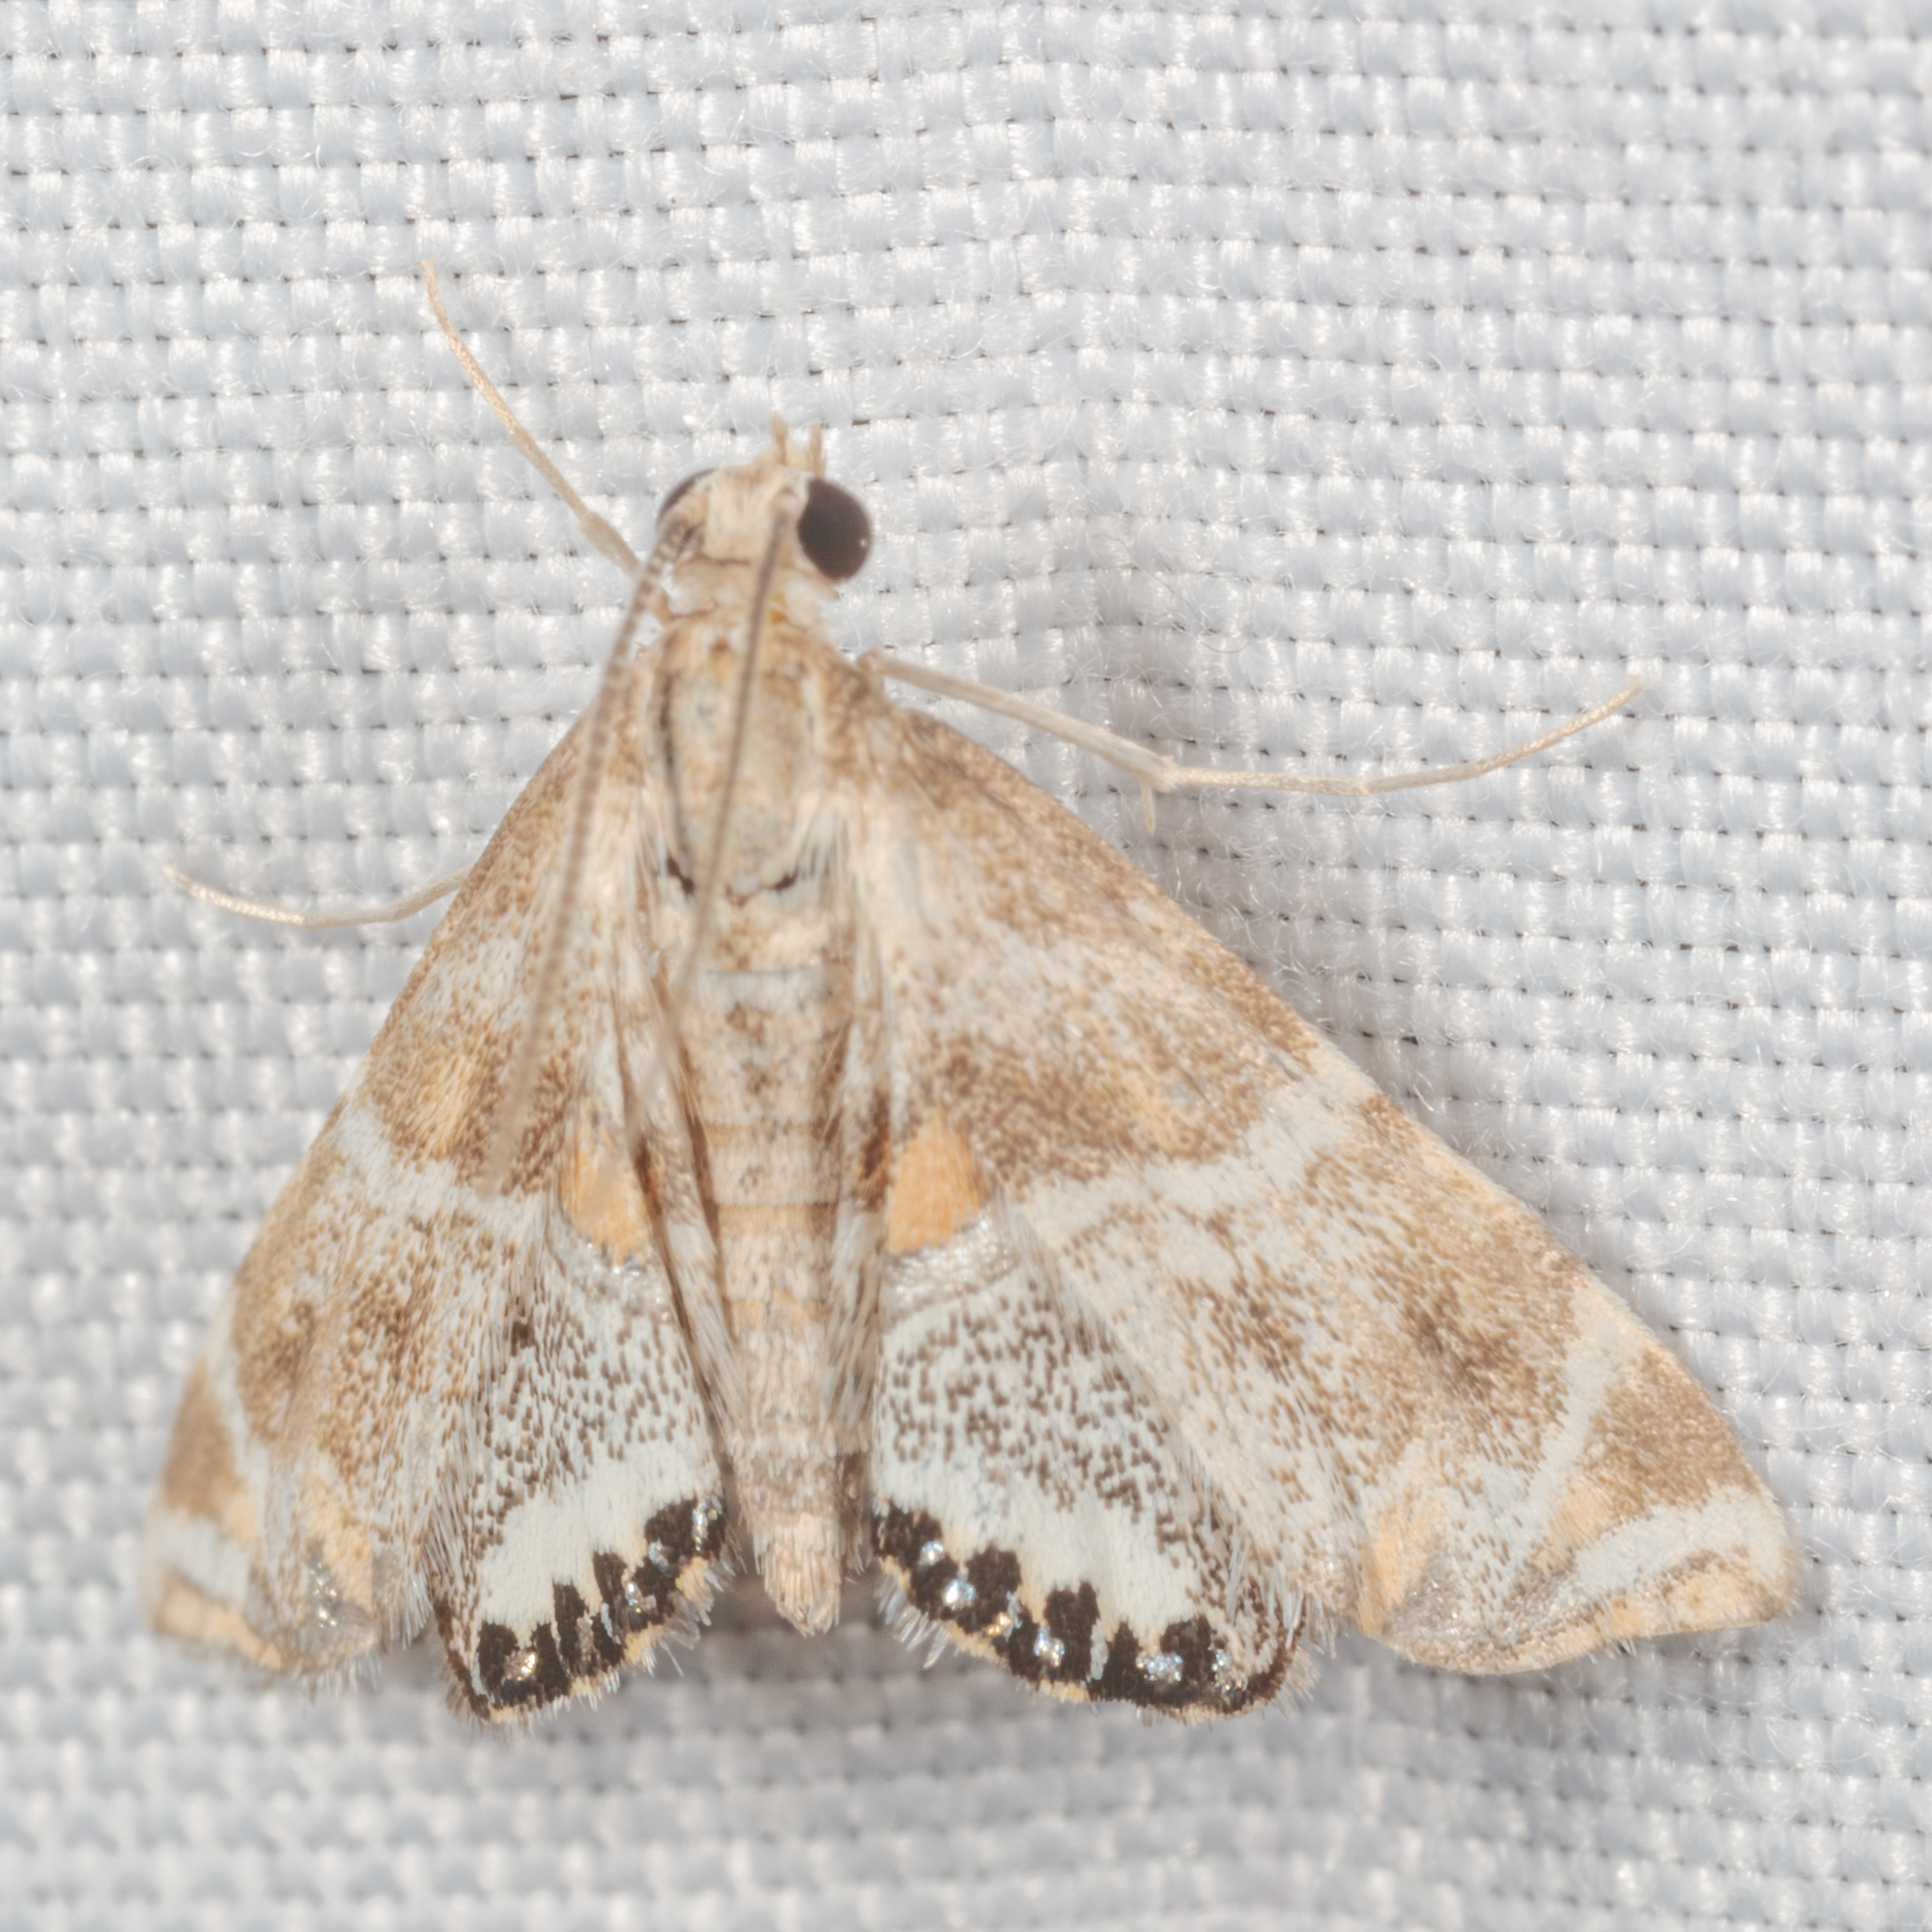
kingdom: Animalia
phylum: Arthropoda
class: Insecta
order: Lepidoptera
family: Crambidae
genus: Petrophila
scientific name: Petrophila jaliscalis
